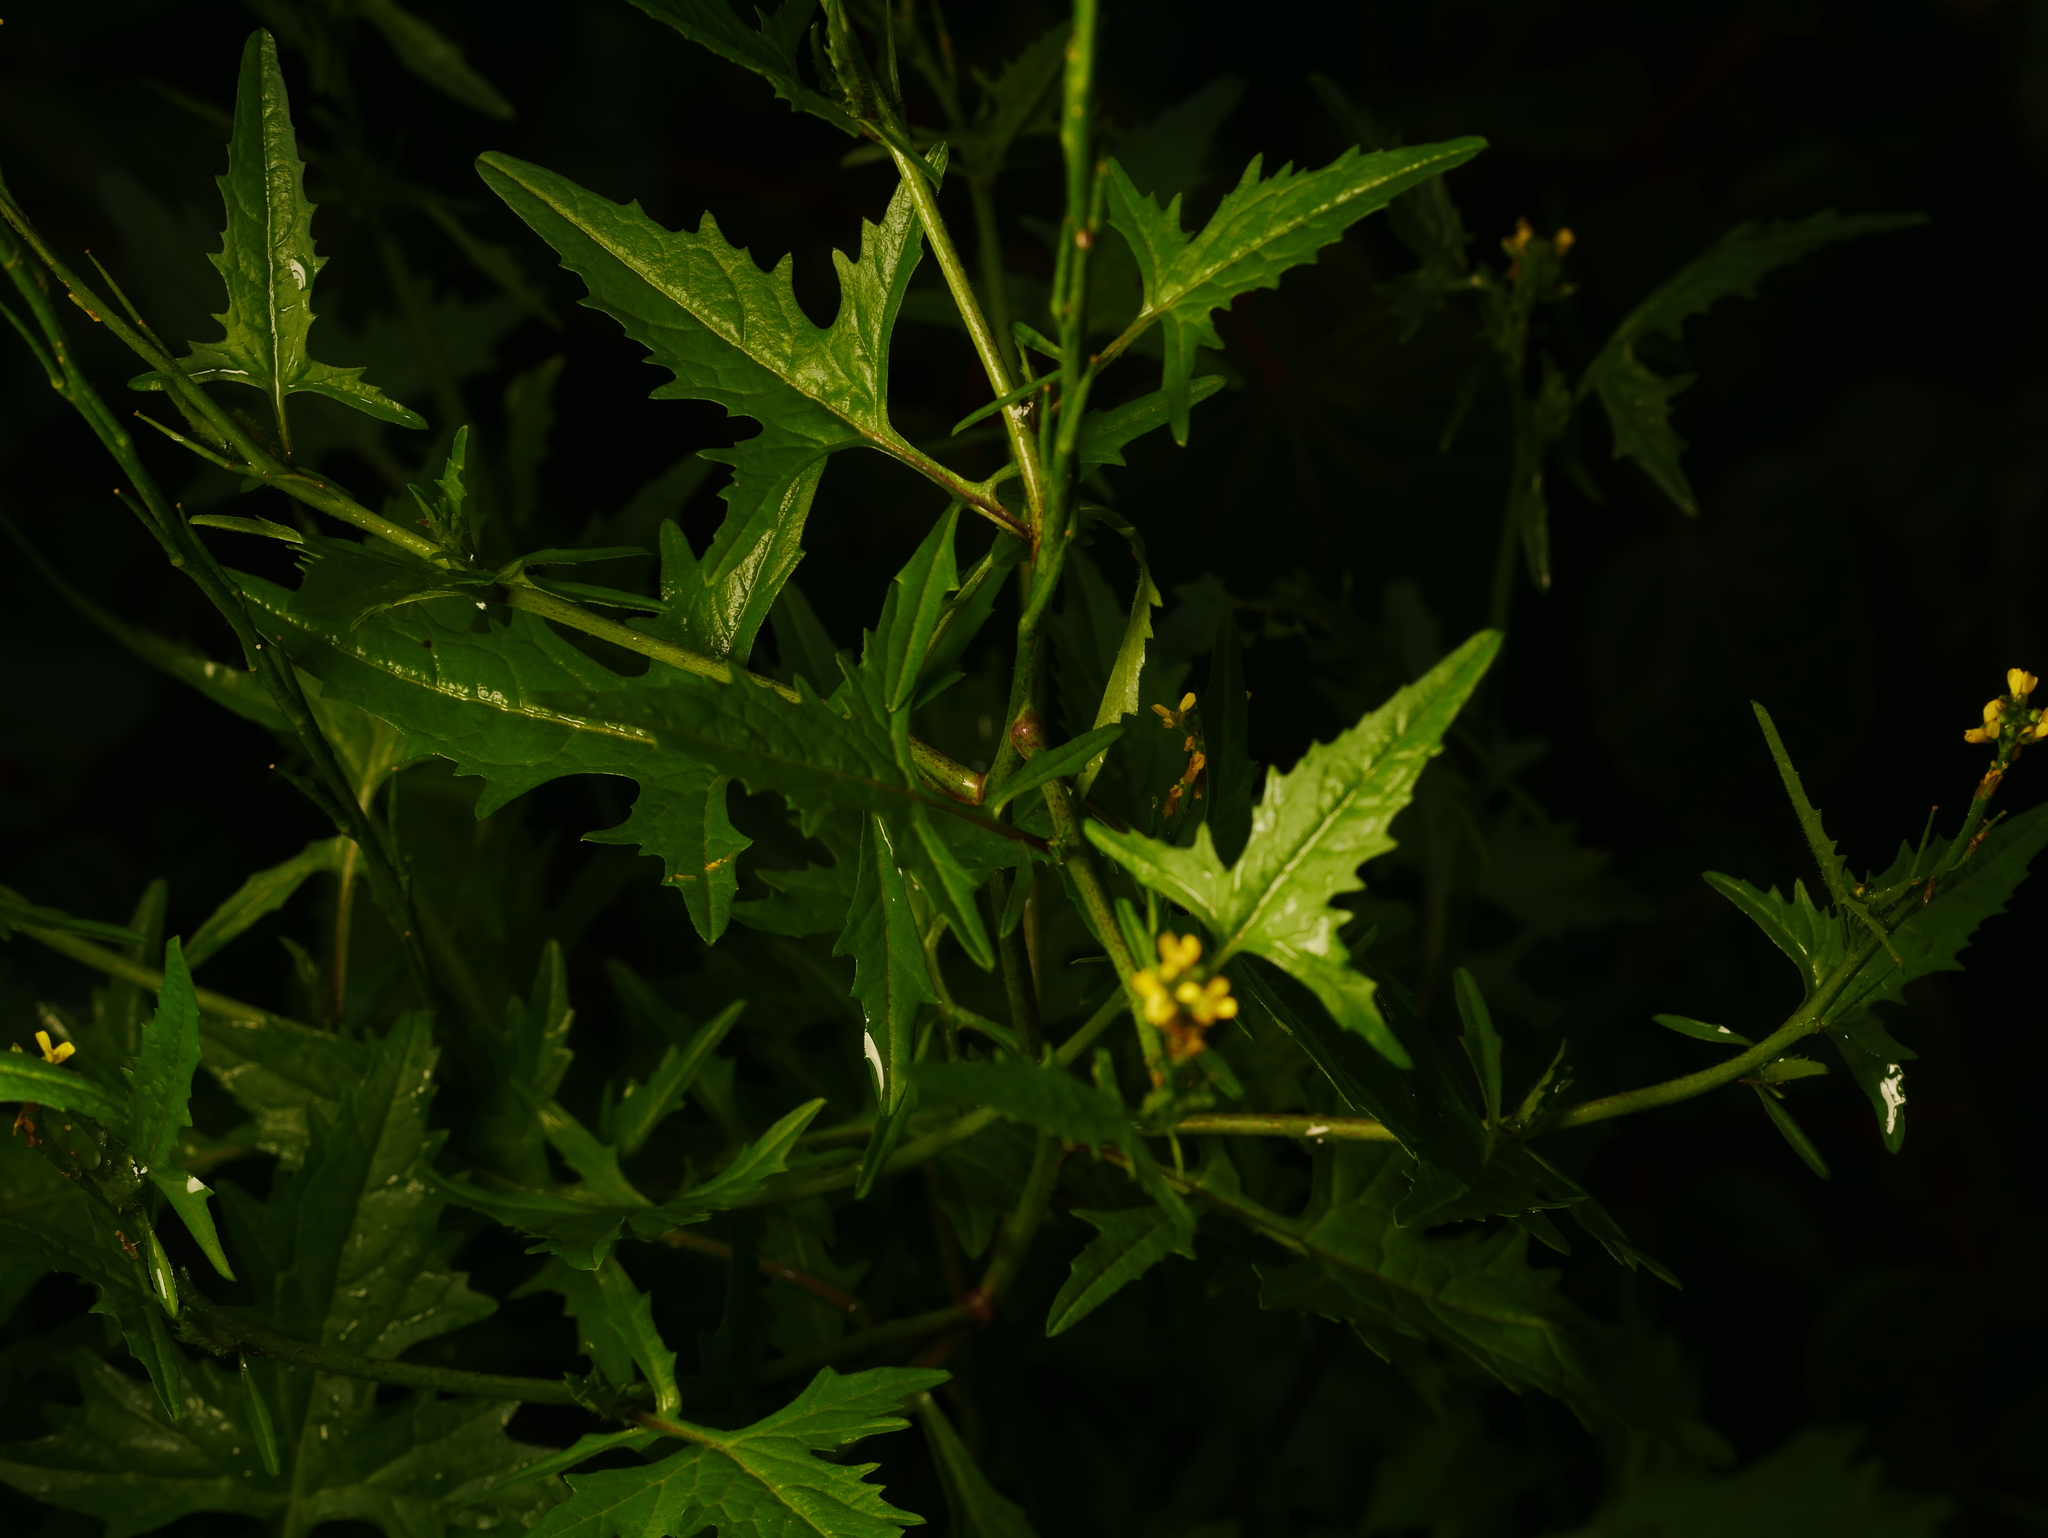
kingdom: Plantae
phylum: Tracheophyta
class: Magnoliopsida
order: Brassicales
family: Brassicaceae
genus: Sisymbrium
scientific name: Sisymbrium officinale
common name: Hedge mustard
